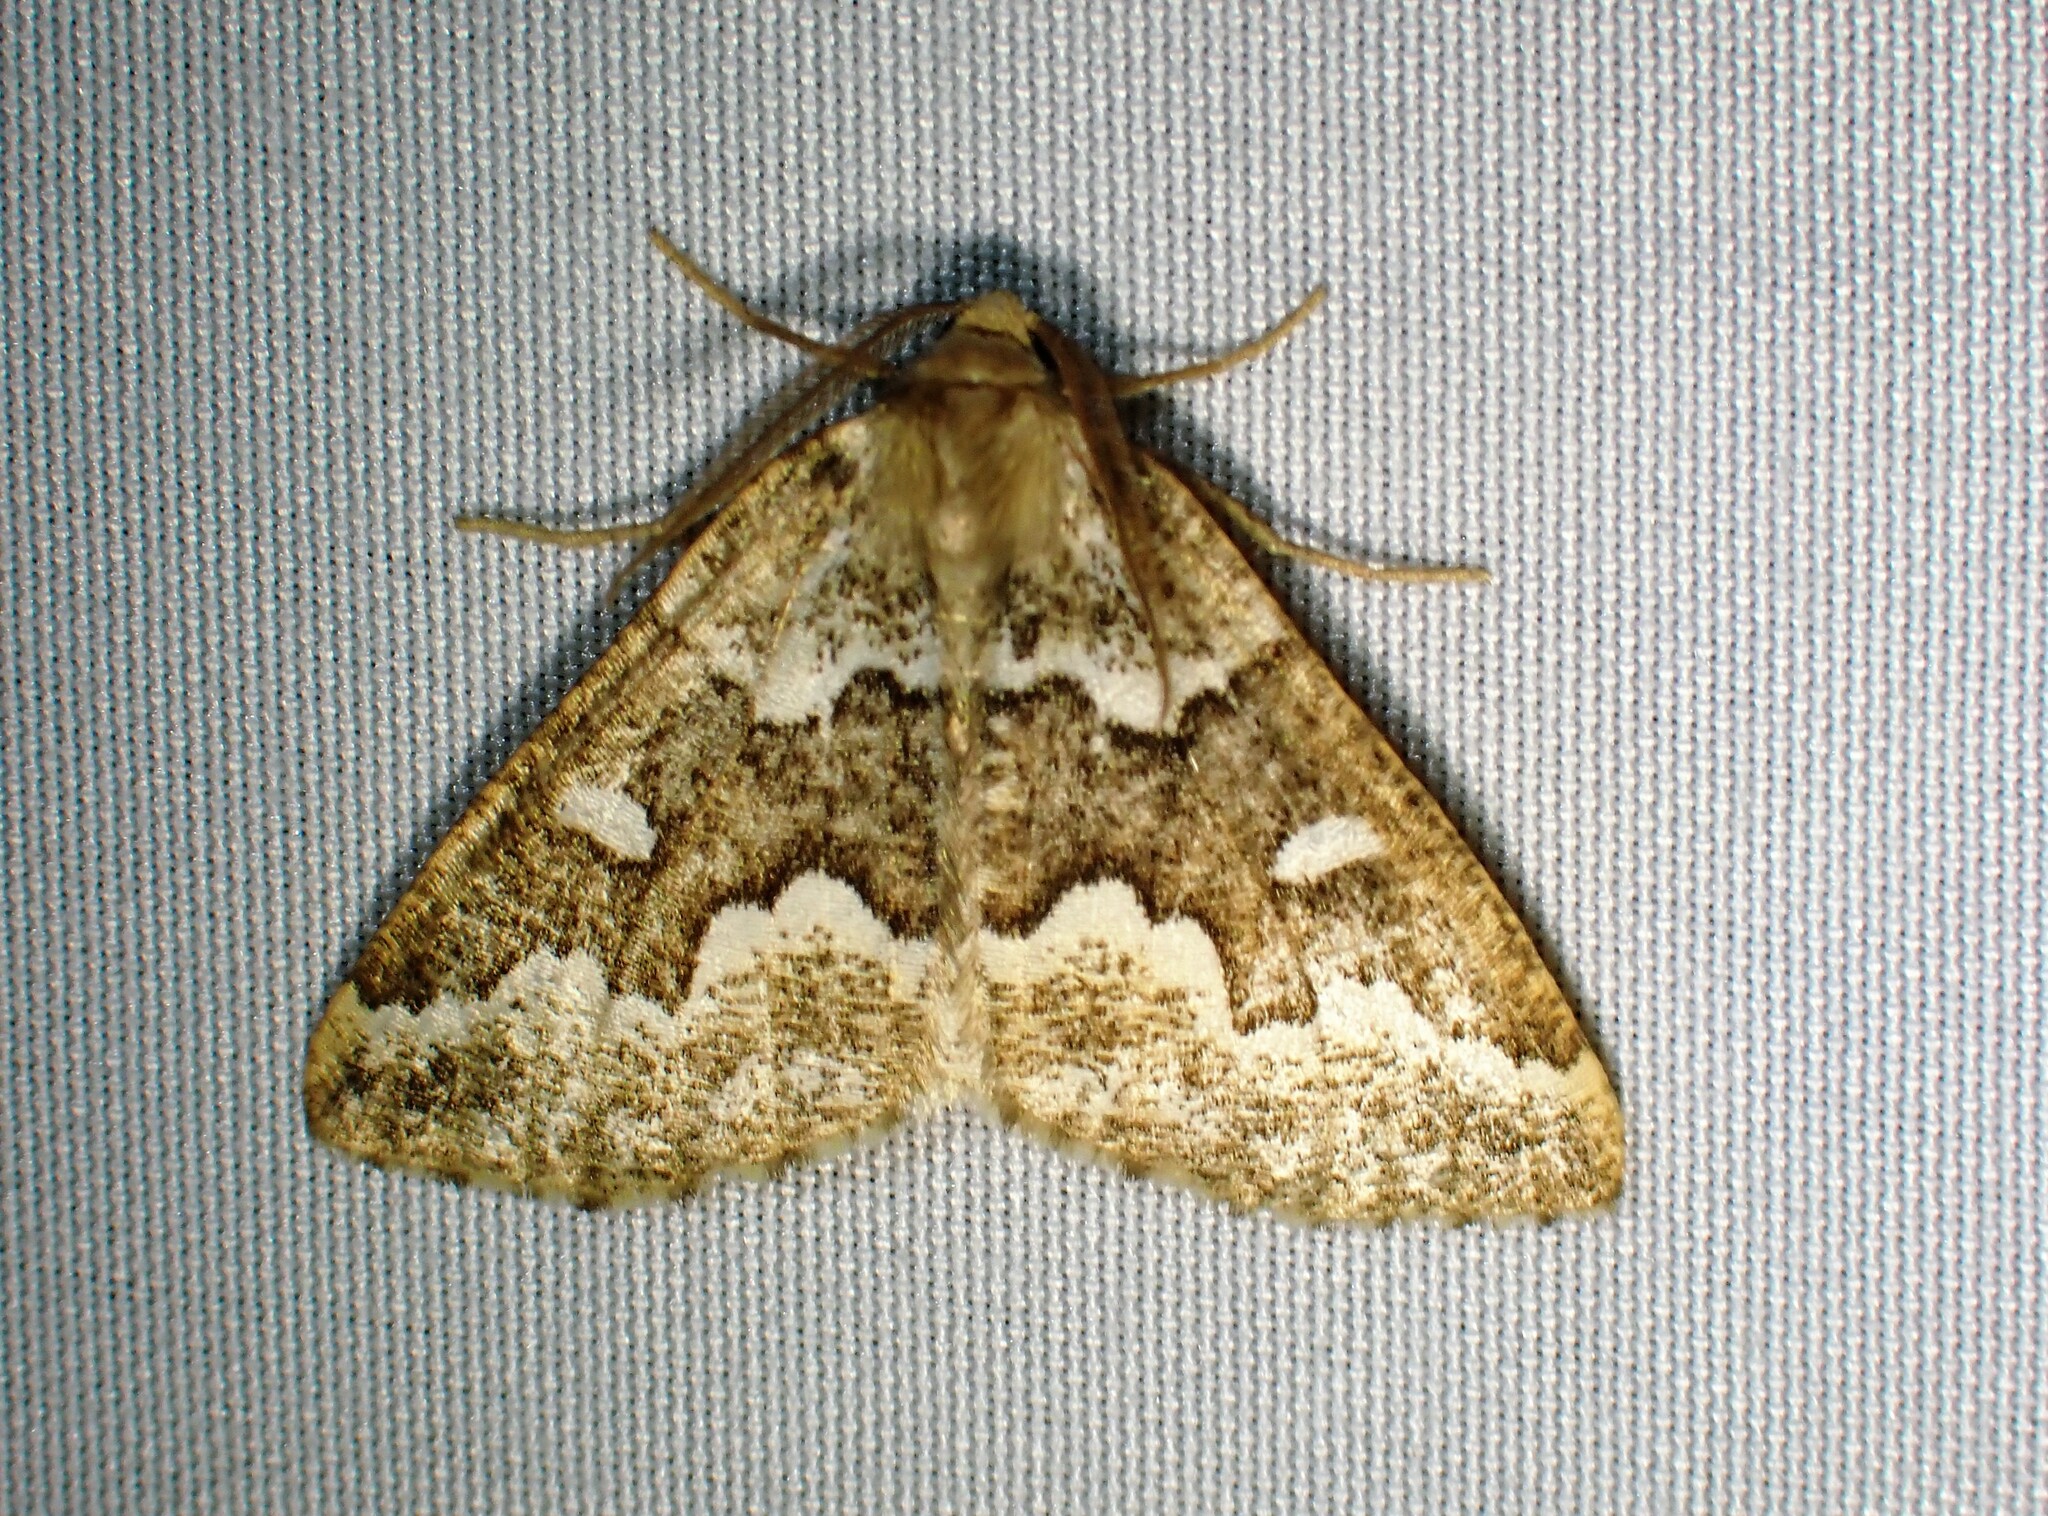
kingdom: Animalia
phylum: Arthropoda
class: Insecta
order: Lepidoptera
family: Geometridae
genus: Caripeta
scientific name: Caripeta divisata
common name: Gray spruce looper
